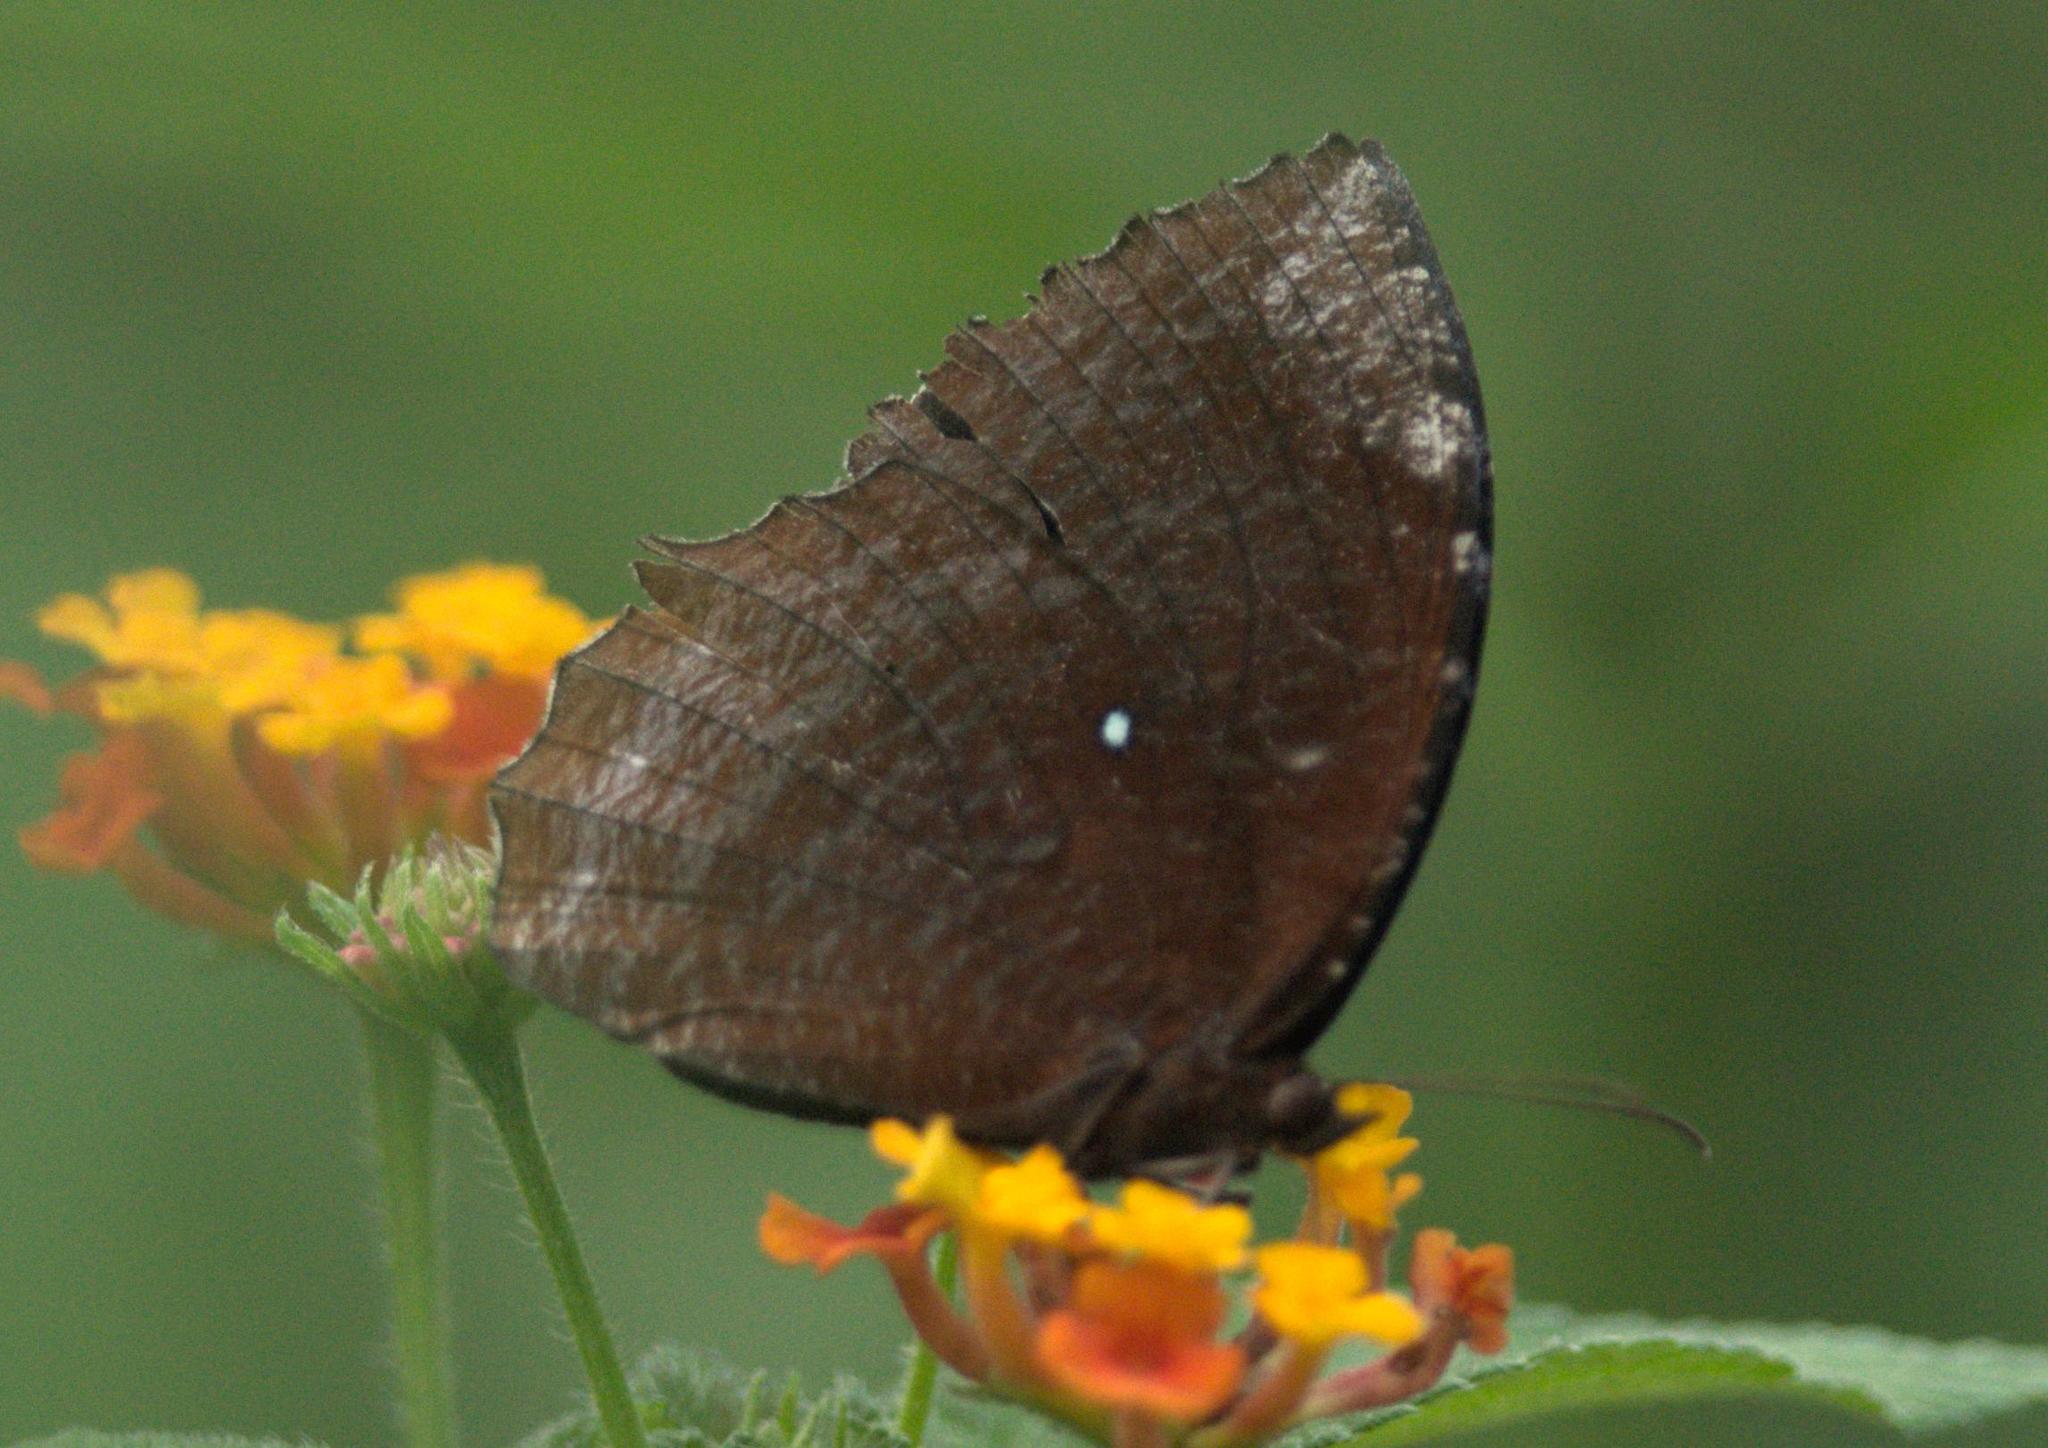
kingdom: Animalia
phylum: Arthropoda
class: Insecta
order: Lepidoptera
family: Nymphalidae
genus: Elymnias
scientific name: Elymnias hypermnestra
